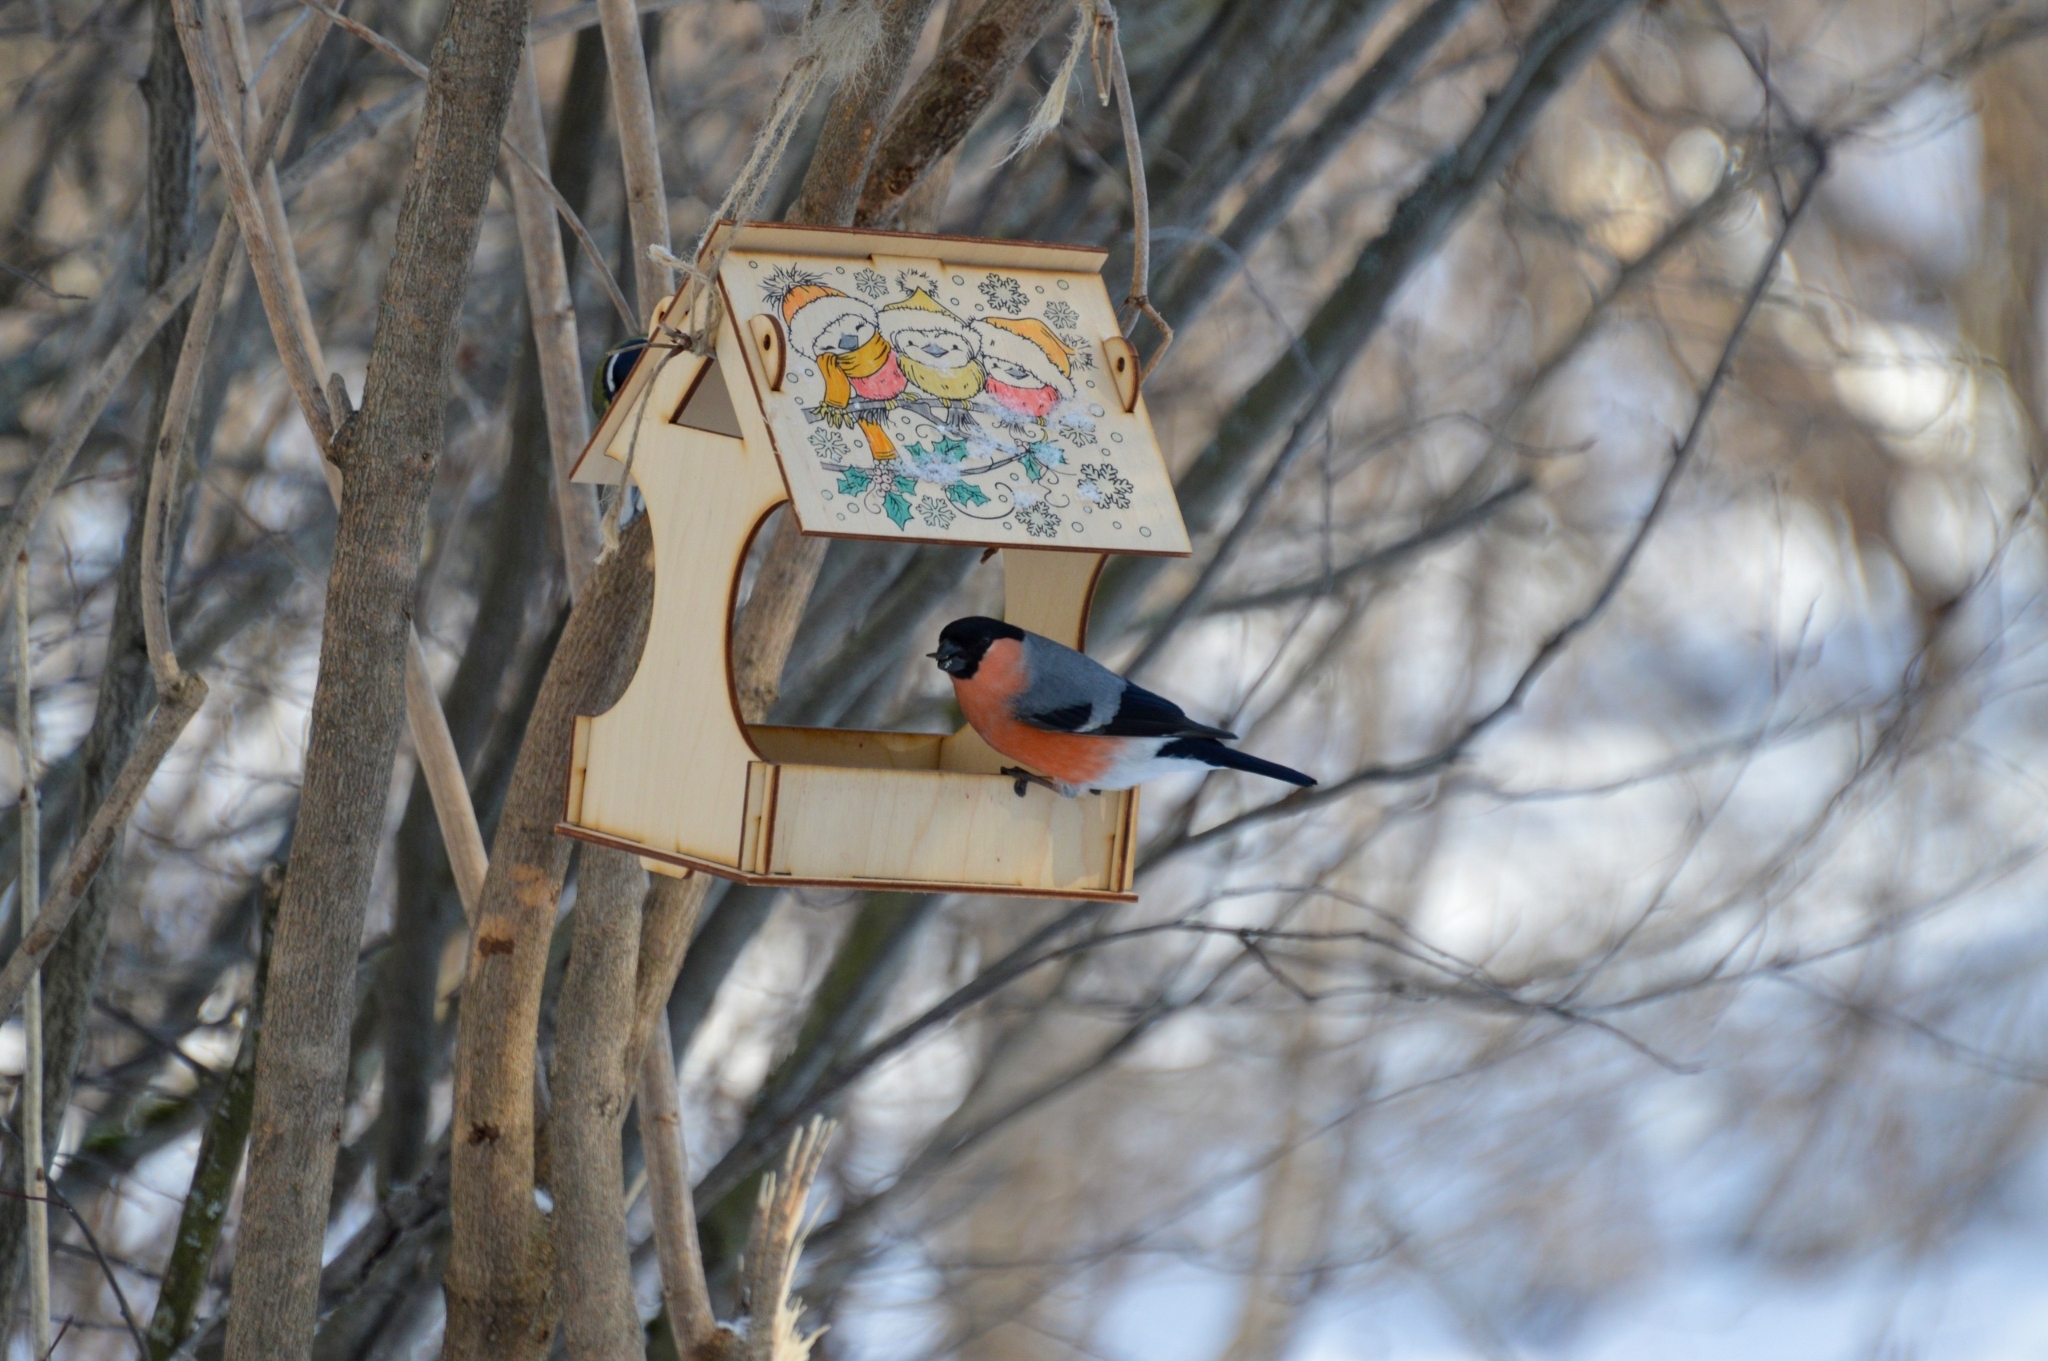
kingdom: Animalia
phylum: Chordata
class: Aves
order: Passeriformes
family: Fringillidae
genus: Pyrrhula
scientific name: Pyrrhula pyrrhula
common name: Eurasian bullfinch
